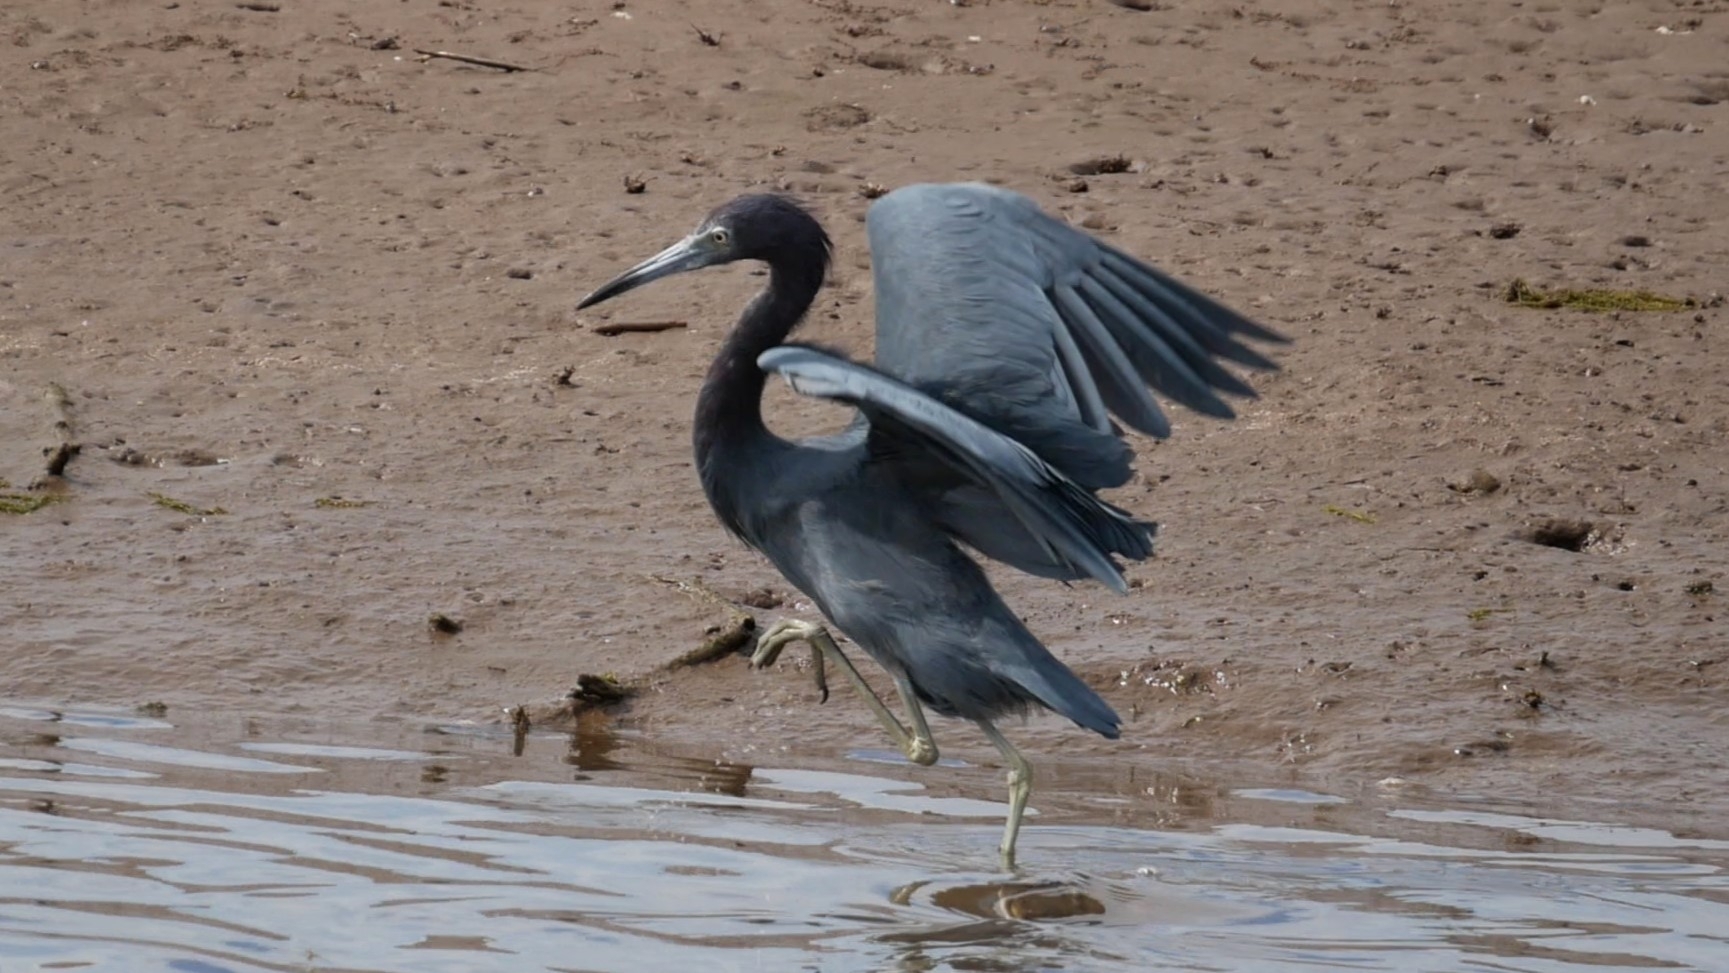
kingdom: Animalia
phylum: Chordata
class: Aves
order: Pelecaniformes
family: Ardeidae
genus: Egretta
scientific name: Egretta caerulea
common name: Little blue heron
